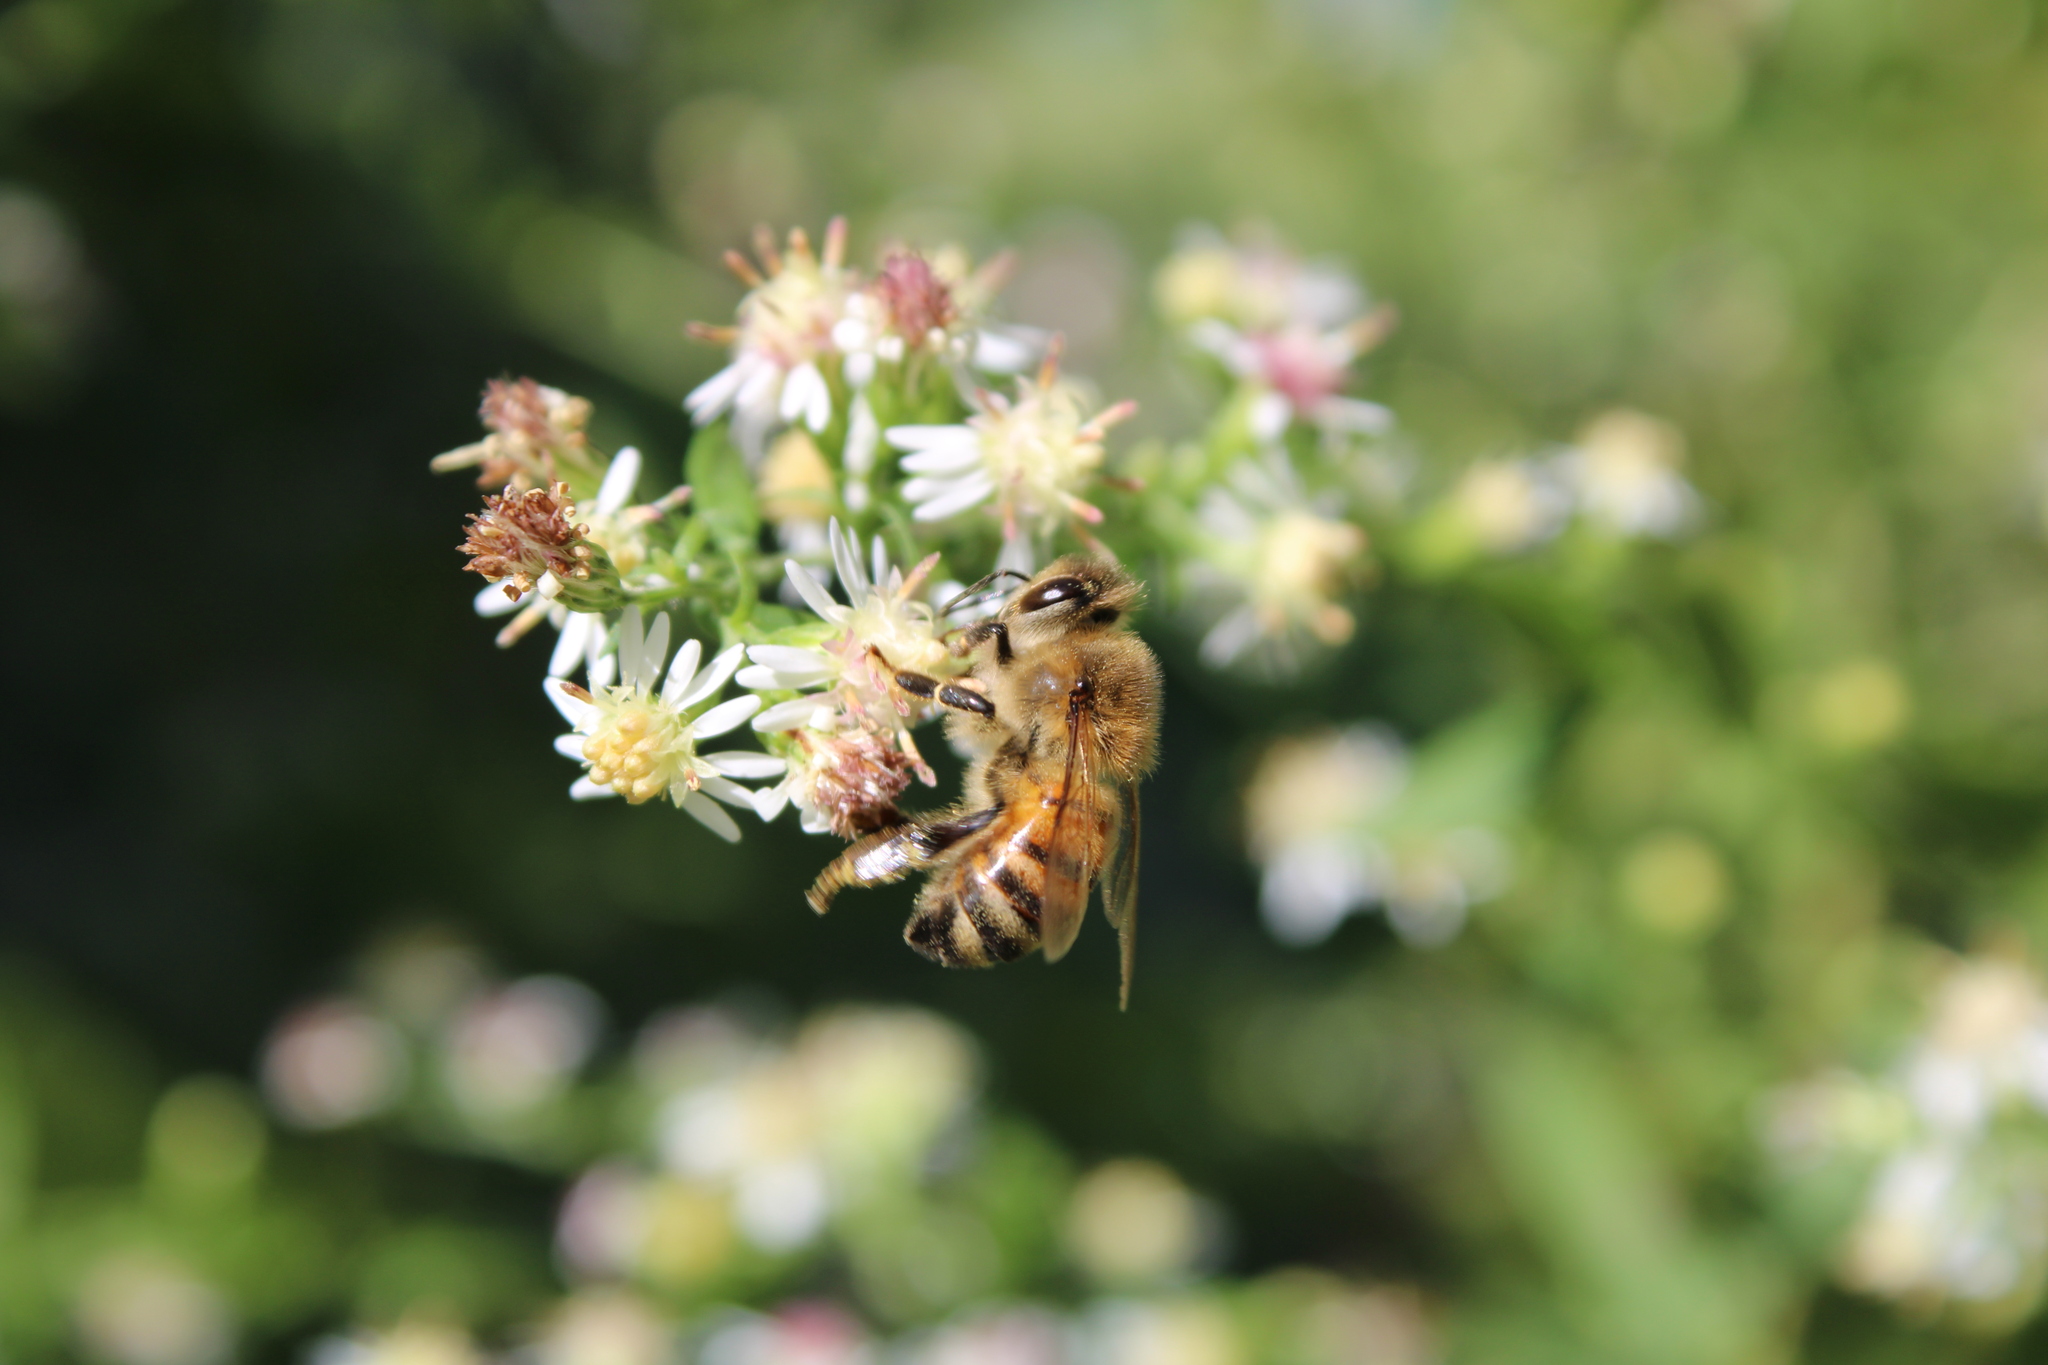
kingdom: Animalia
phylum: Arthropoda
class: Insecta
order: Hymenoptera
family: Apidae
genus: Apis
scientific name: Apis mellifera
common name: Honey bee
